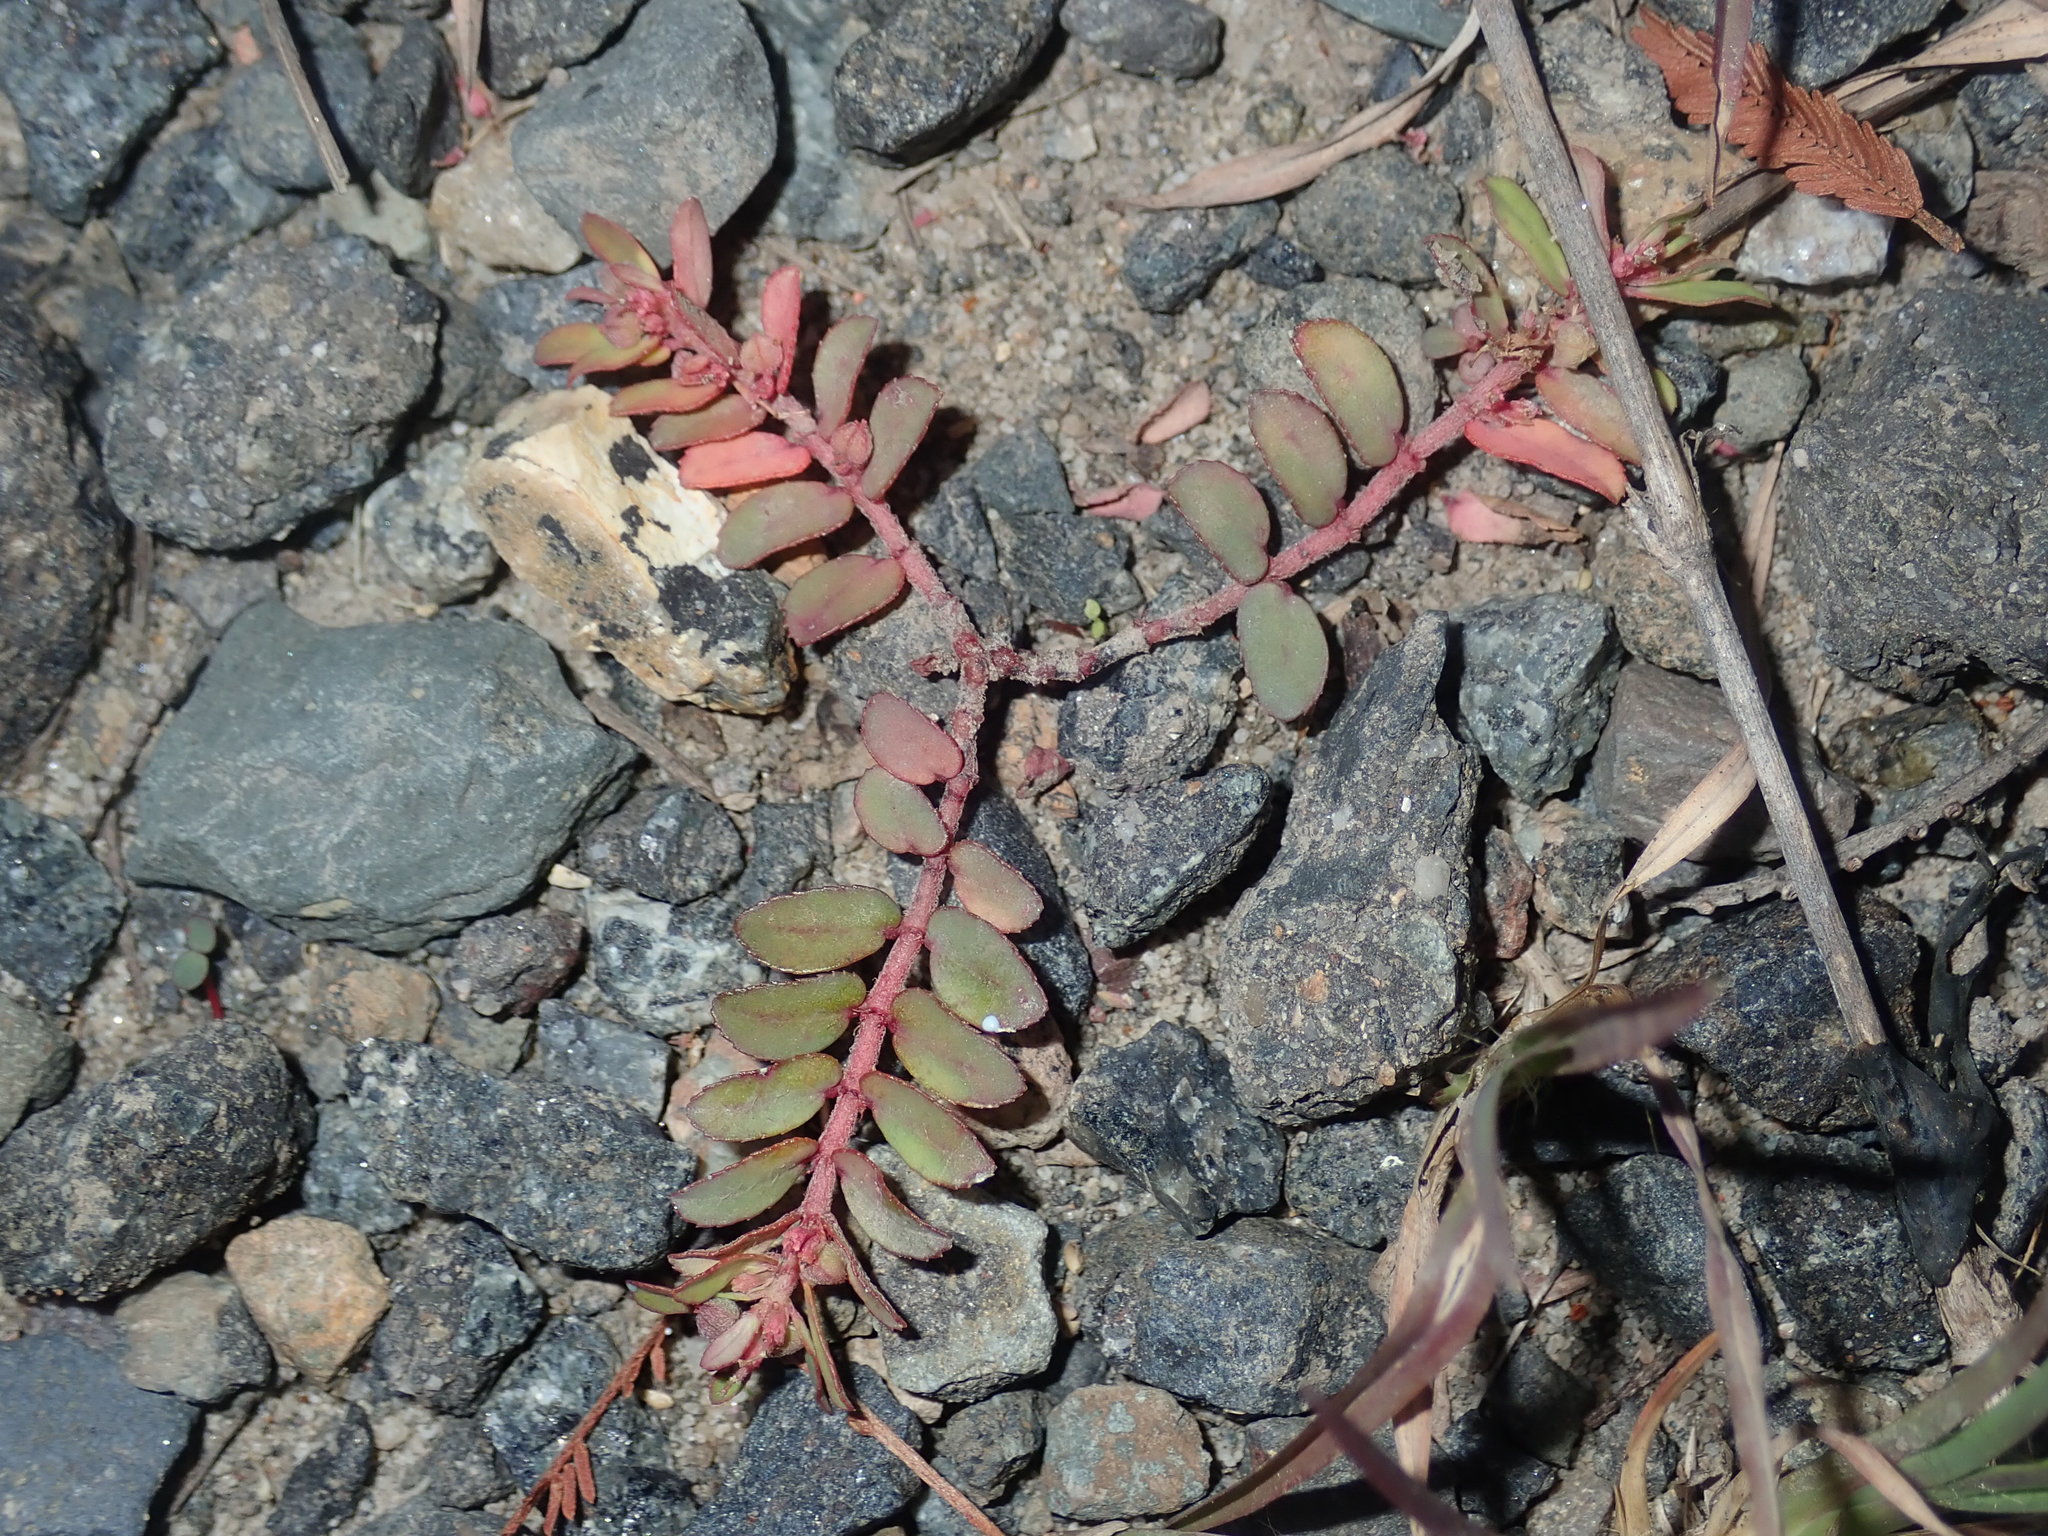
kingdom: Plantae
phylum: Tracheophyta
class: Magnoliopsida
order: Malpighiales
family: Euphorbiaceae
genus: Euphorbia
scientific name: Euphorbia maculata
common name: Spotted spurge
